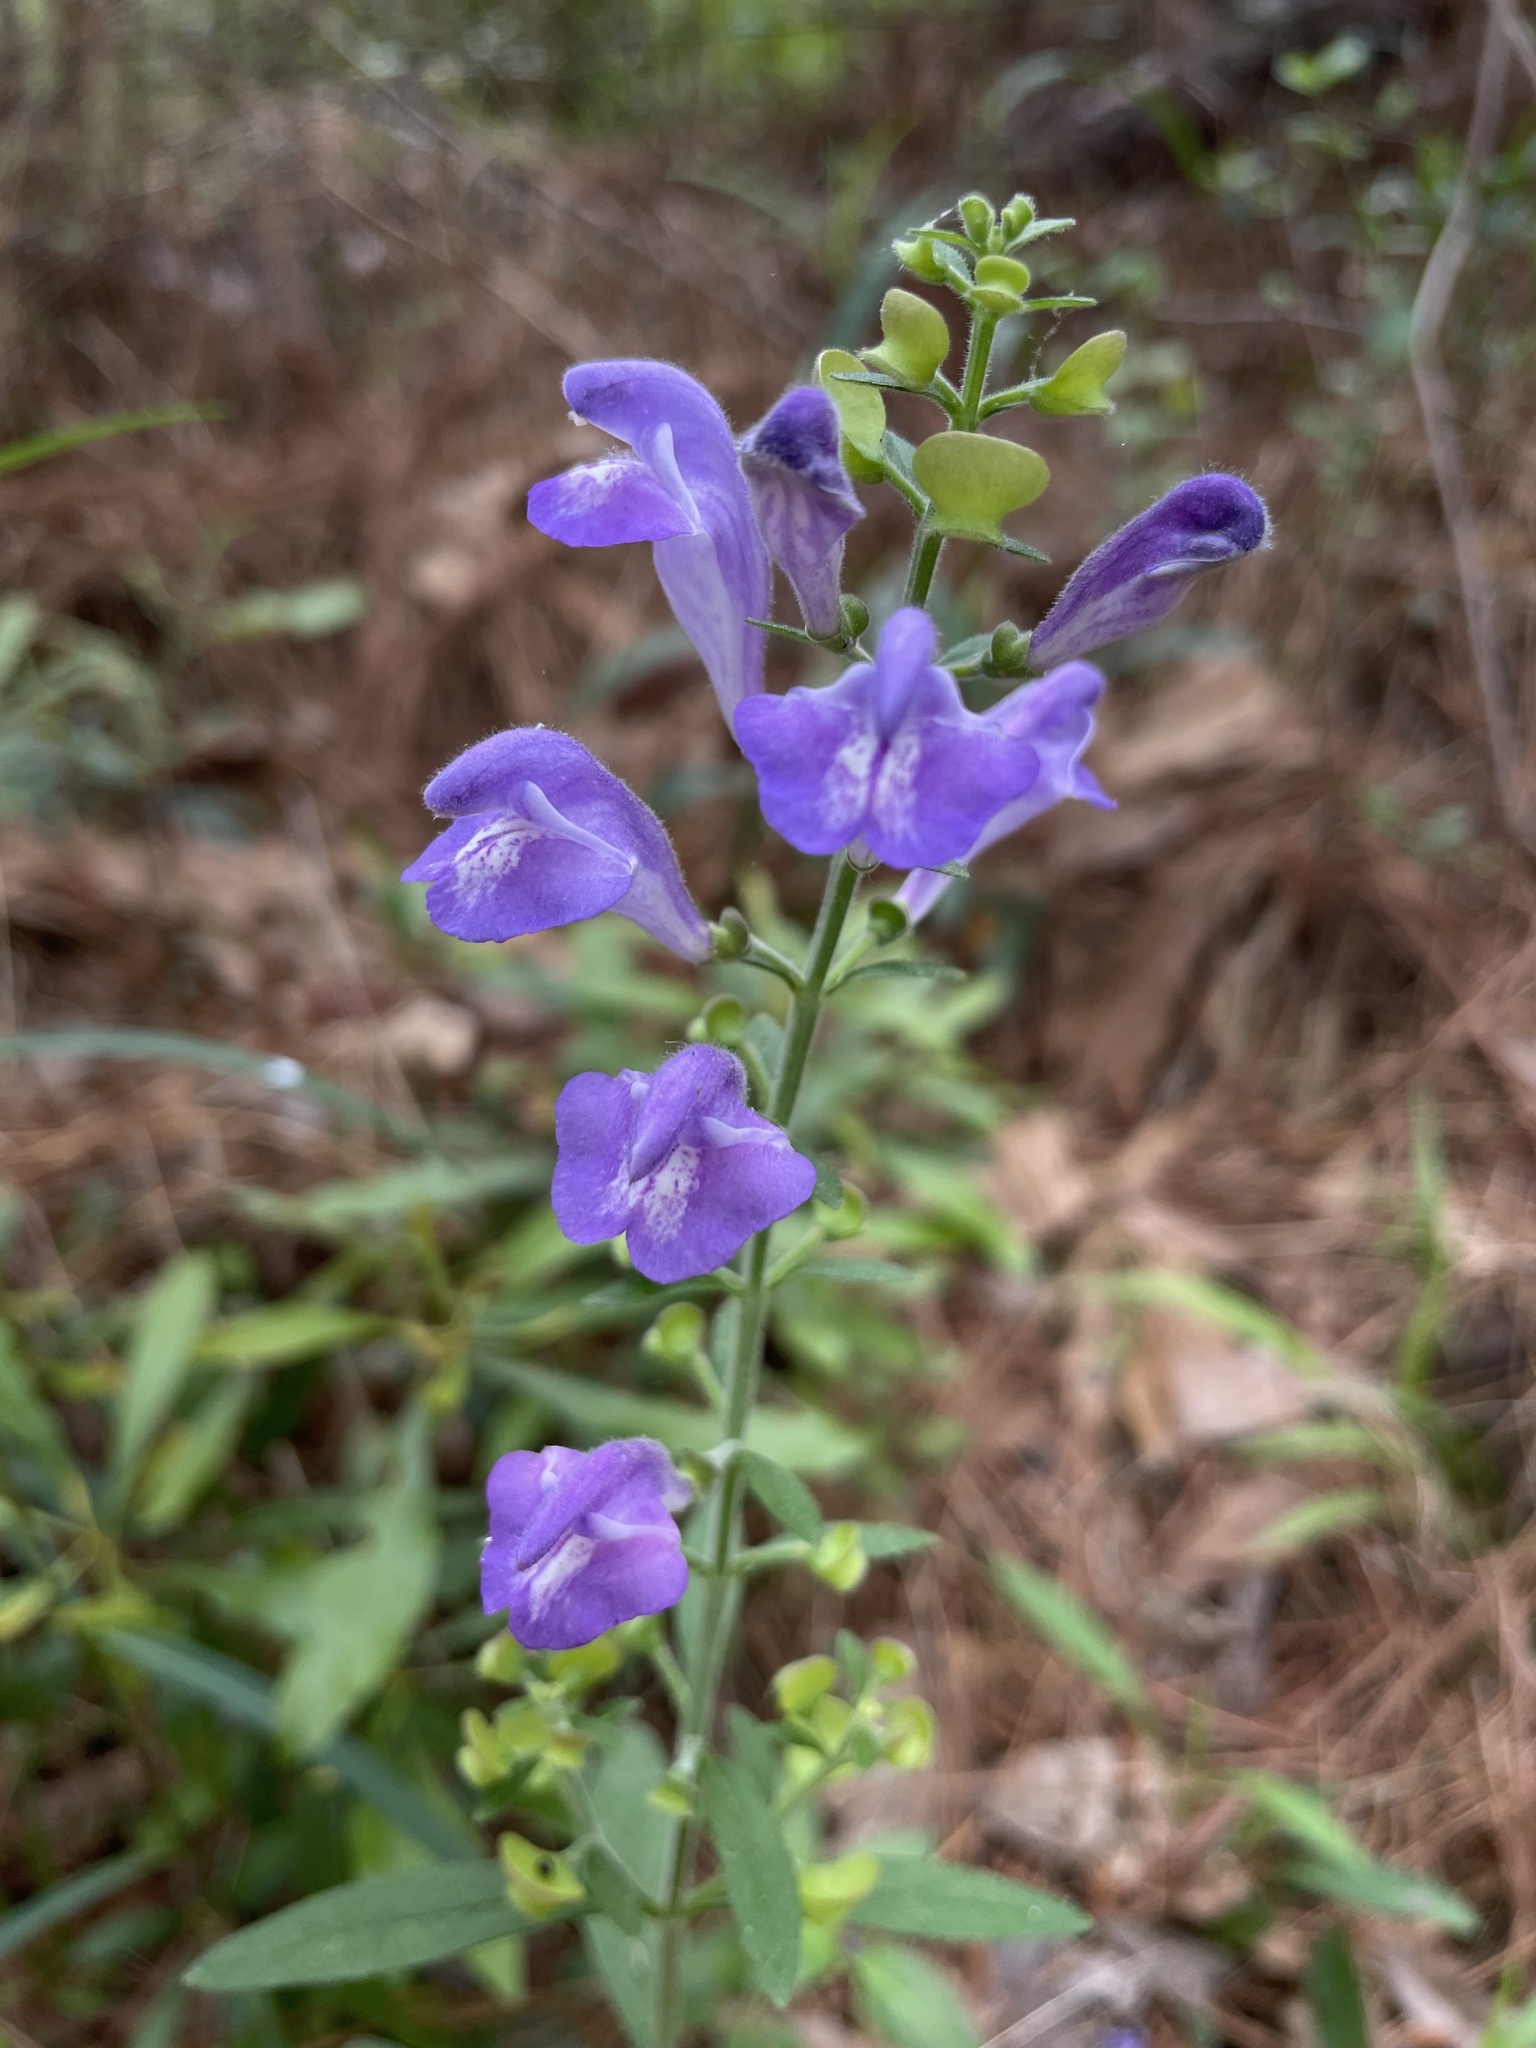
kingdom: Plantae
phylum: Tracheophyta
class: Magnoliopsida
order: Lamiales
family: Lamiaceae
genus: Scutellaria
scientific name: Scutellaria integrifolia
